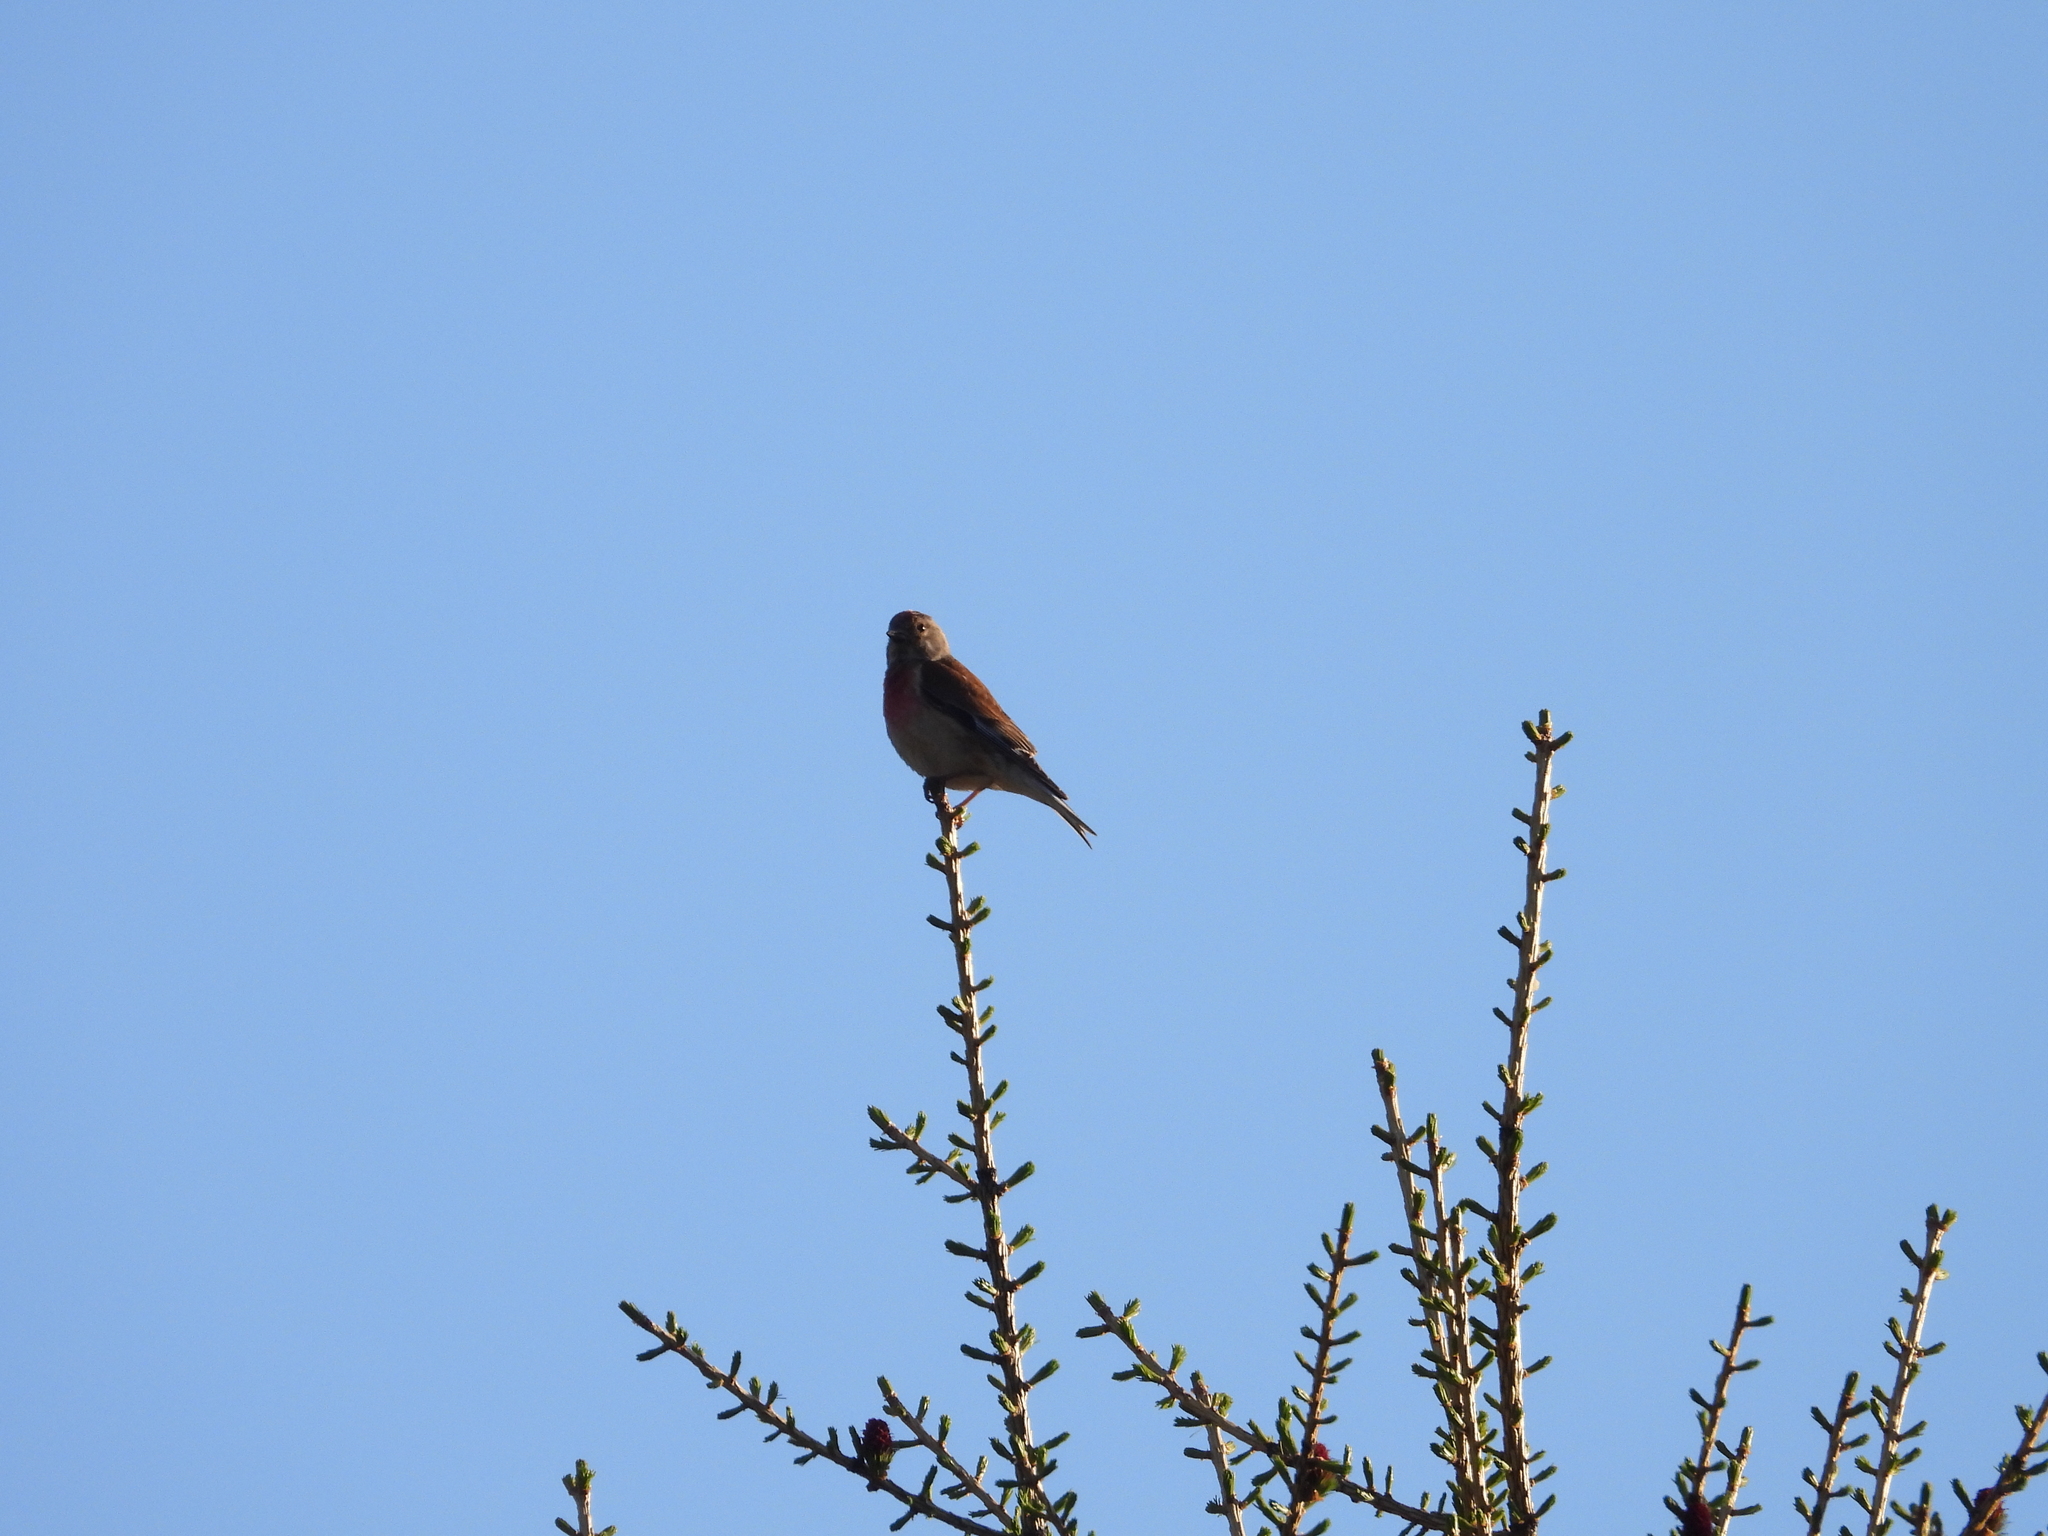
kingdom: Animalia
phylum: Chordata
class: Aves
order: Passeriformes
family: Fringillidae
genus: Linaria
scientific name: Linaria cannabina
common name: Common linnet
